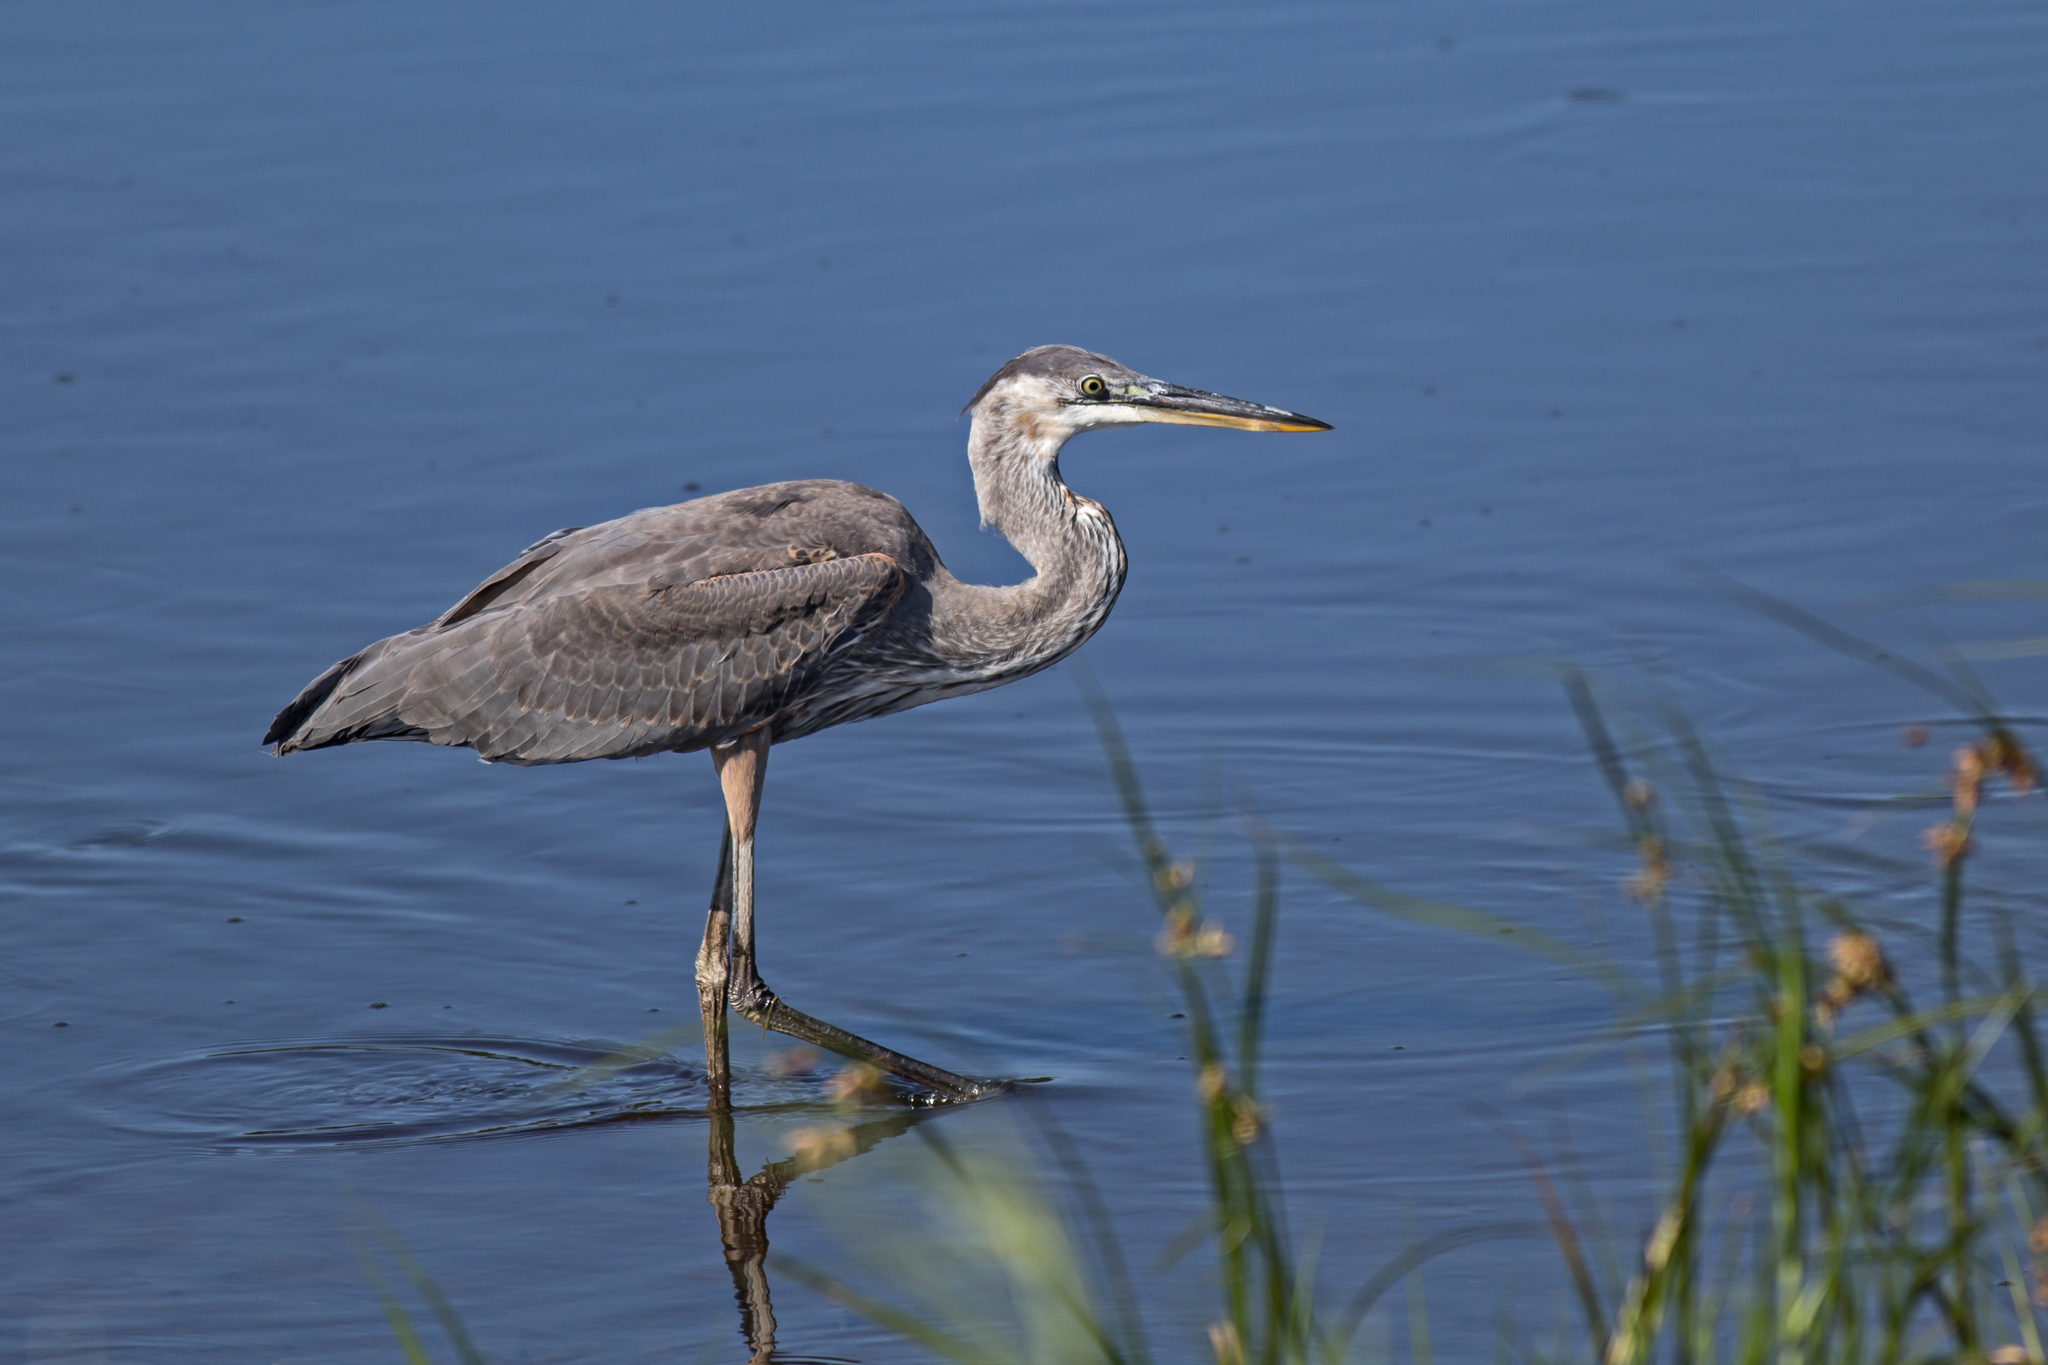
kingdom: Animalia
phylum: Chordata
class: Aves
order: Pelecaniformes
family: Ardeidae
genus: Ardea
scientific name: Ardea herodias
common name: Great blue heron
